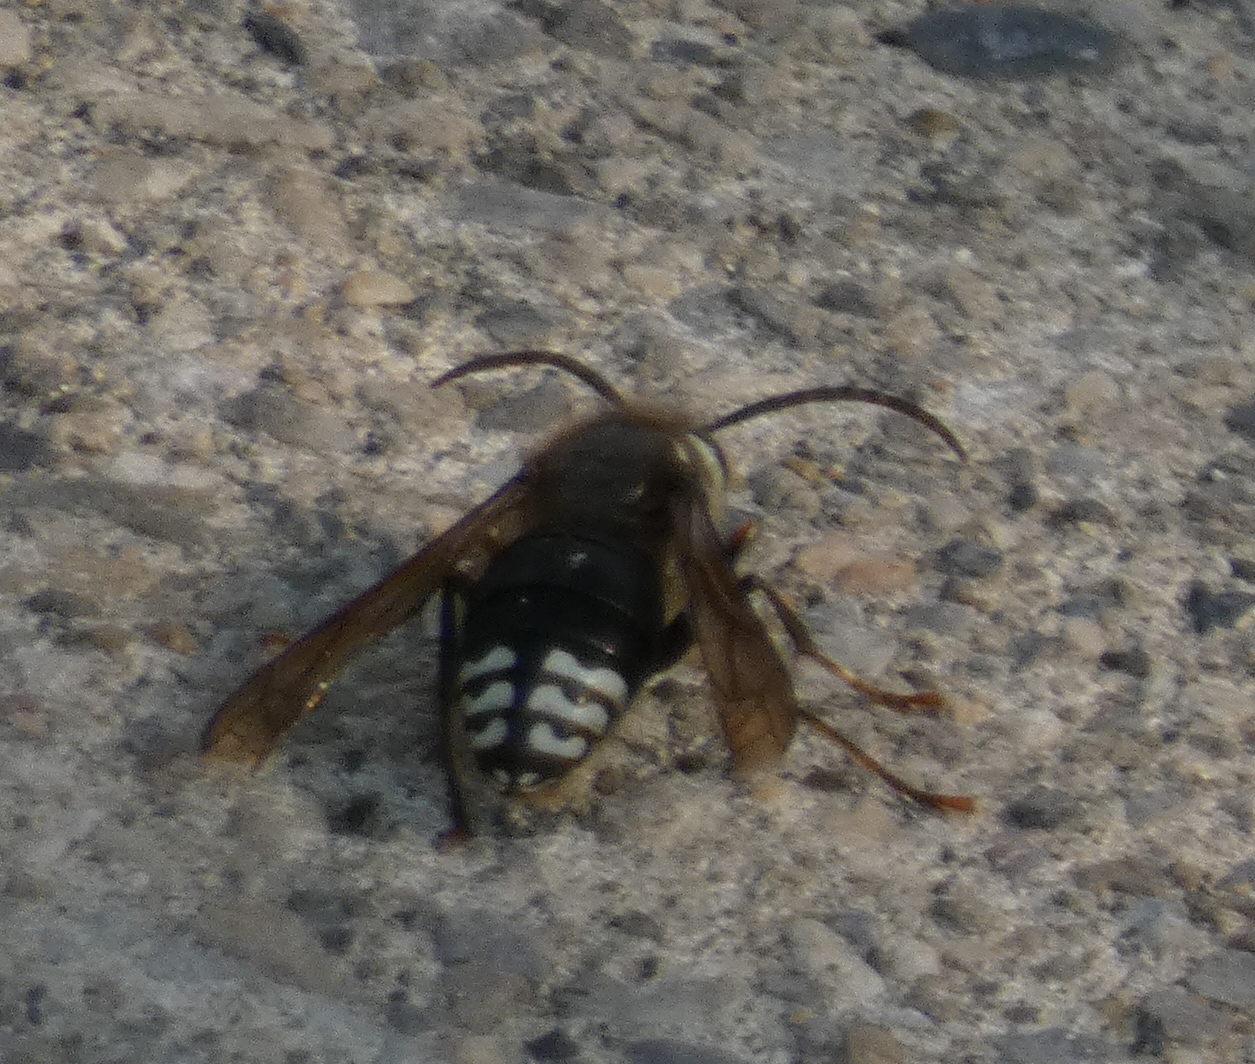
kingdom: Animalia
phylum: Arthropoda
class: Insecta
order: Hymenoptera
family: Vespidae
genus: Dolichovespula
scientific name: Dolichovespula maculata
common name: Bald-faced hornet
